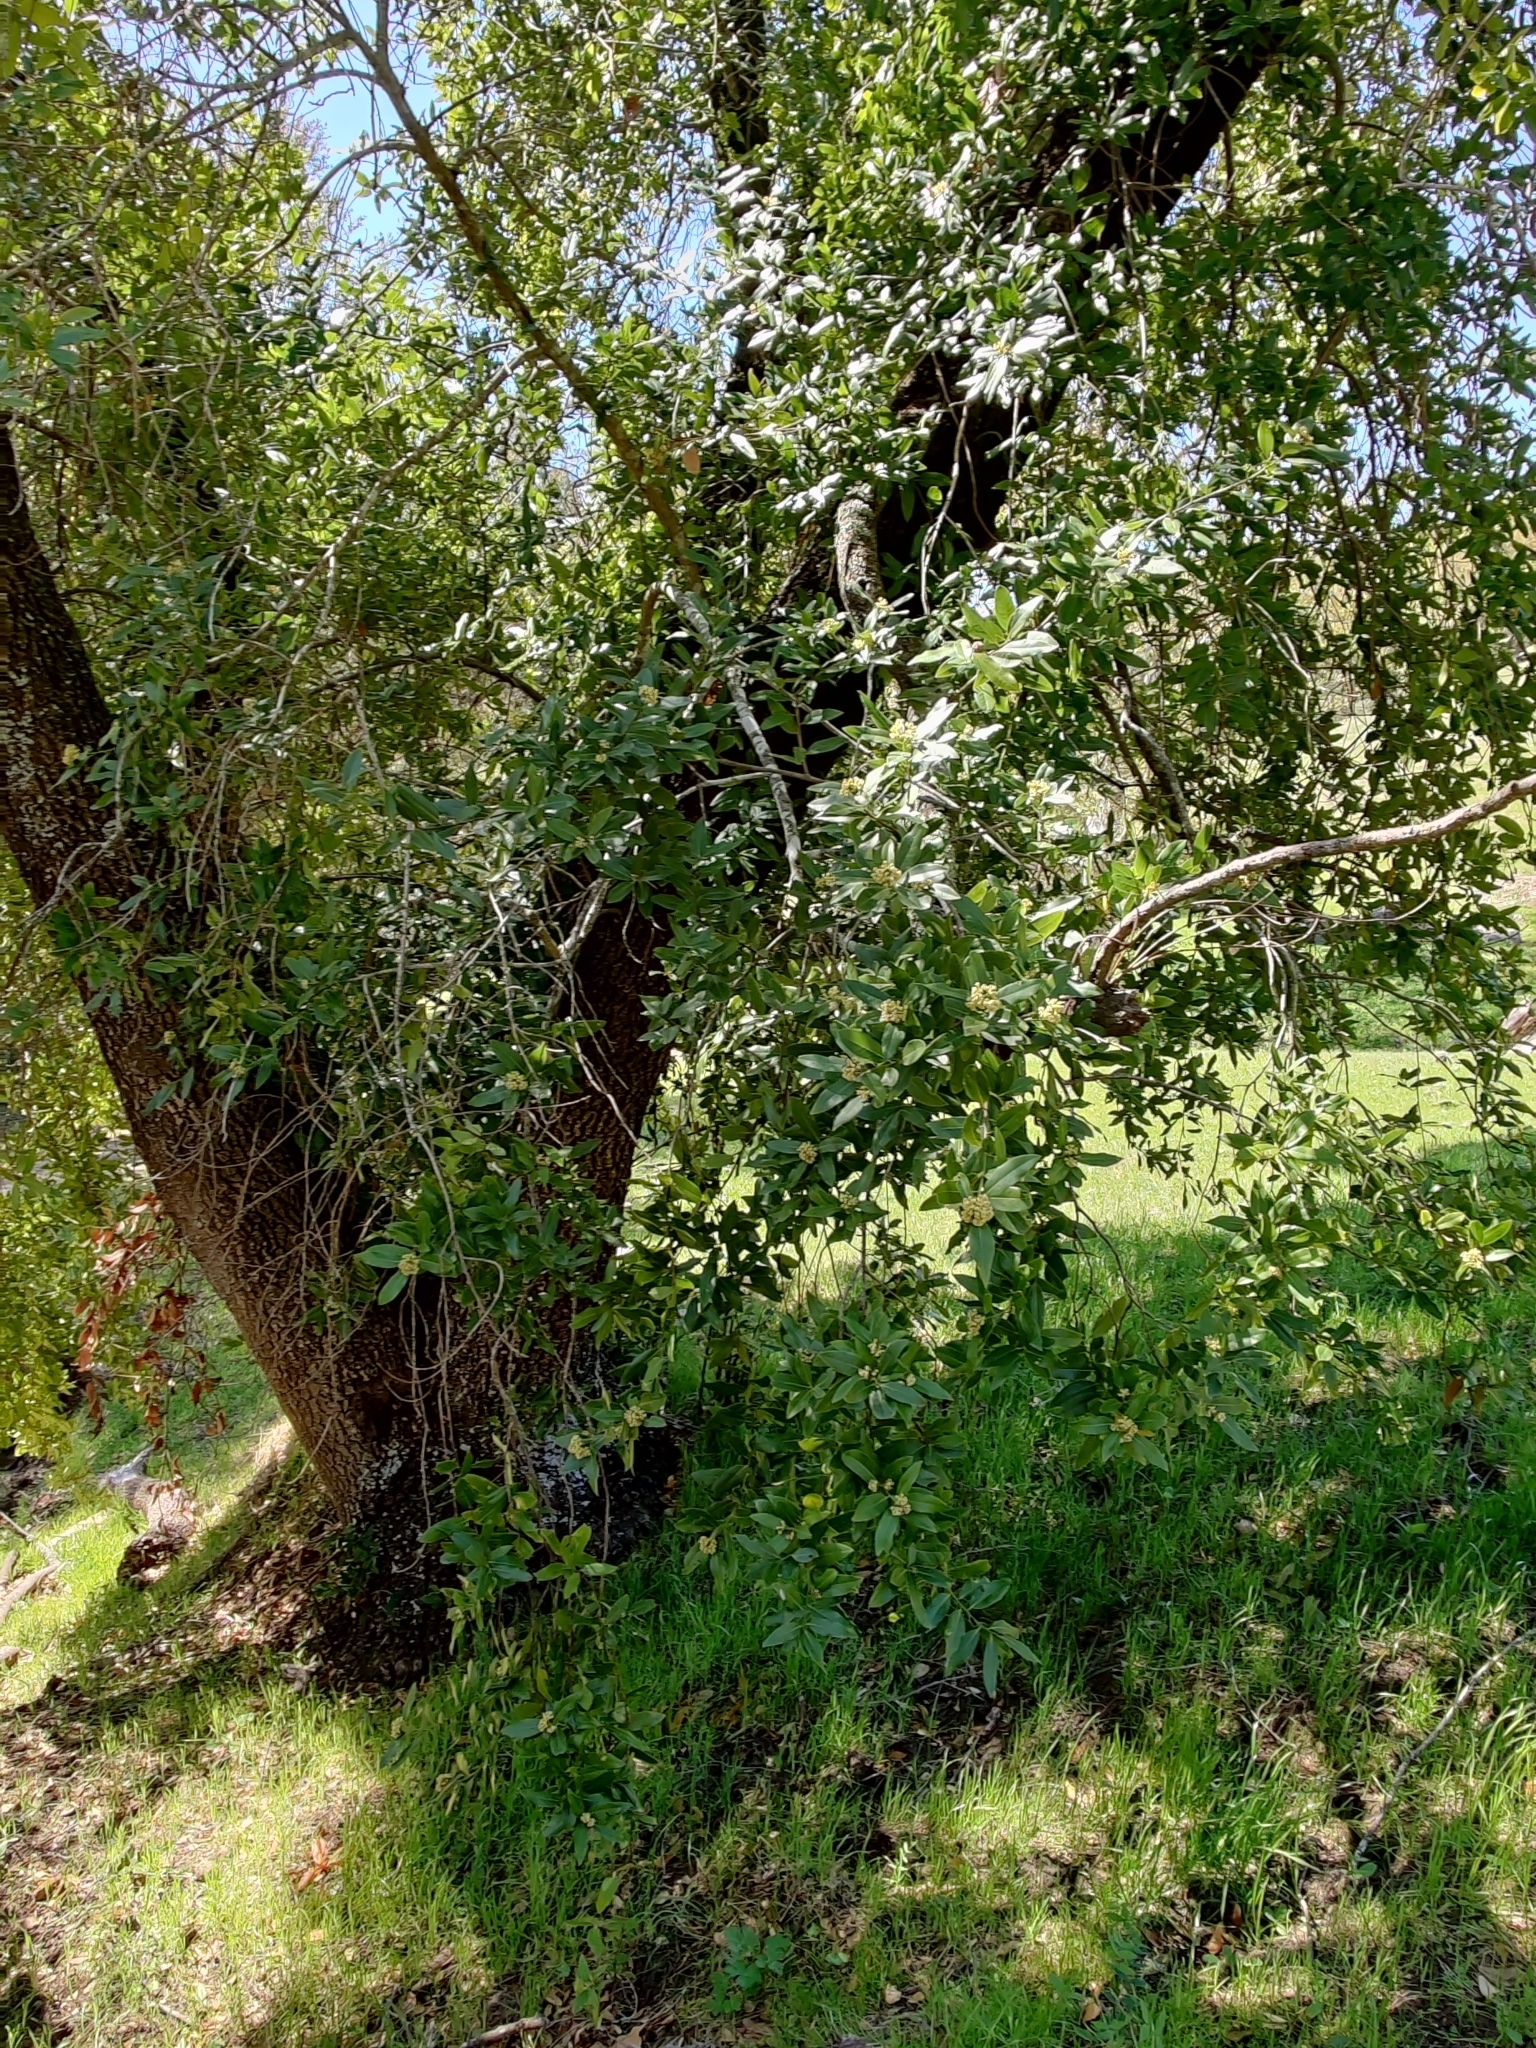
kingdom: Plantae
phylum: Tracheophyta
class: Magnoliopsida
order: Laurales
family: Lauraceae
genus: Umbellularia
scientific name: Umbellularia californica
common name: California bay
